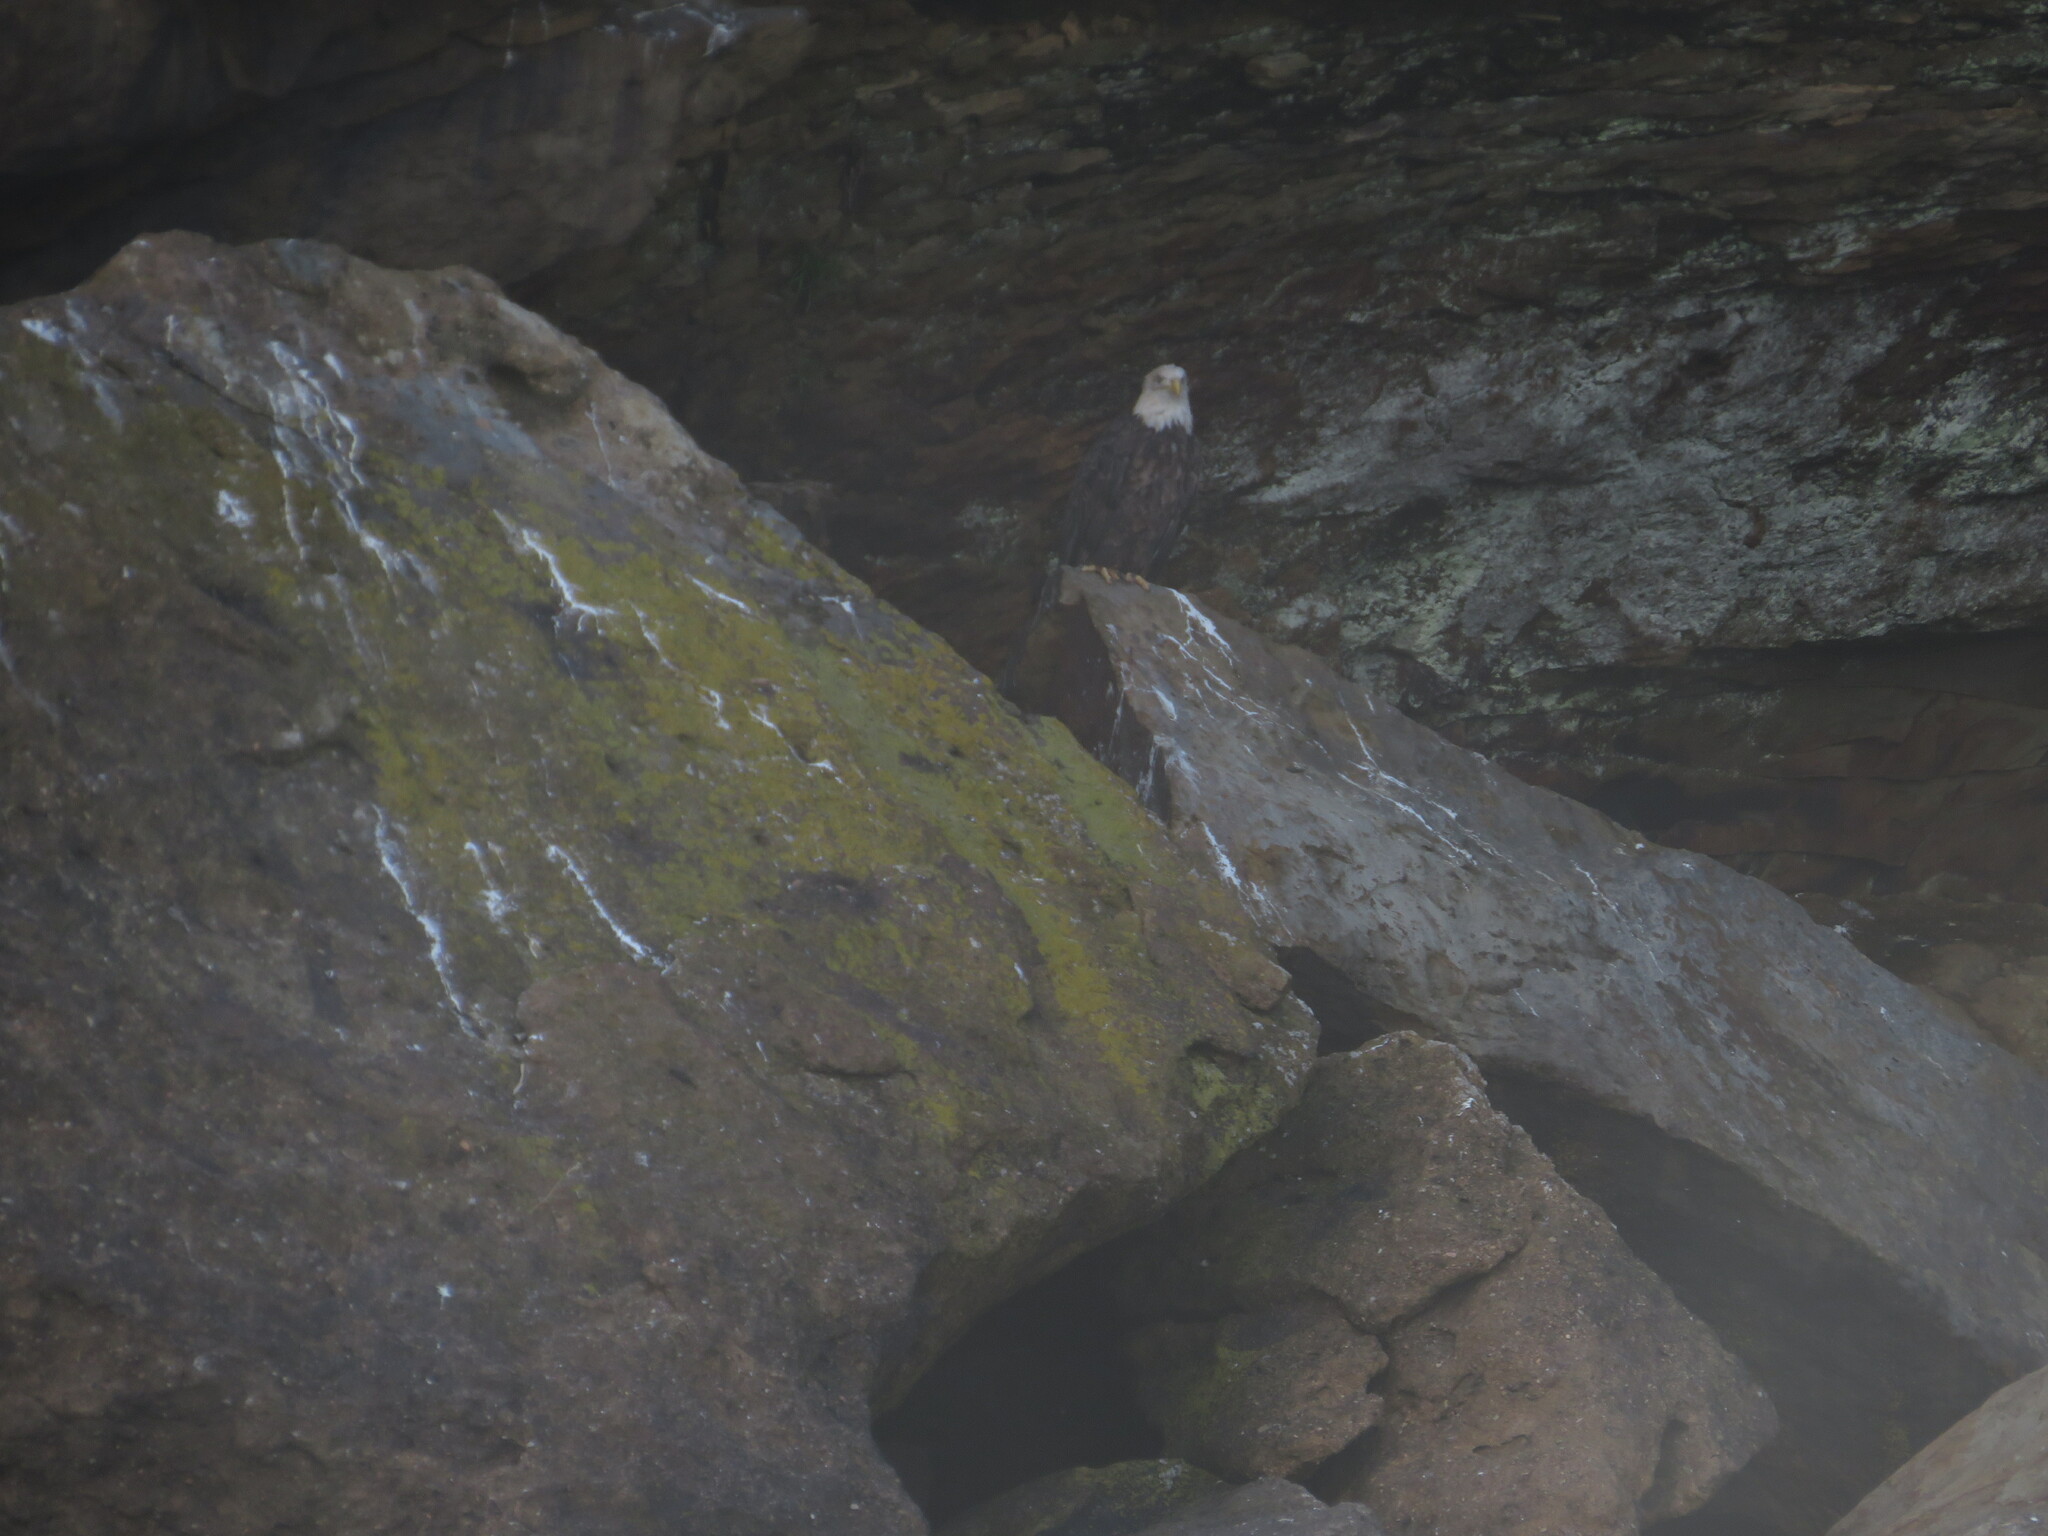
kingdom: Animalia
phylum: Chordata
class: Aves
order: Accipitriformes
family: Accipitridae
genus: Haliaeetus
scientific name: Haliaeetus leucocephalus
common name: Bald eagle
